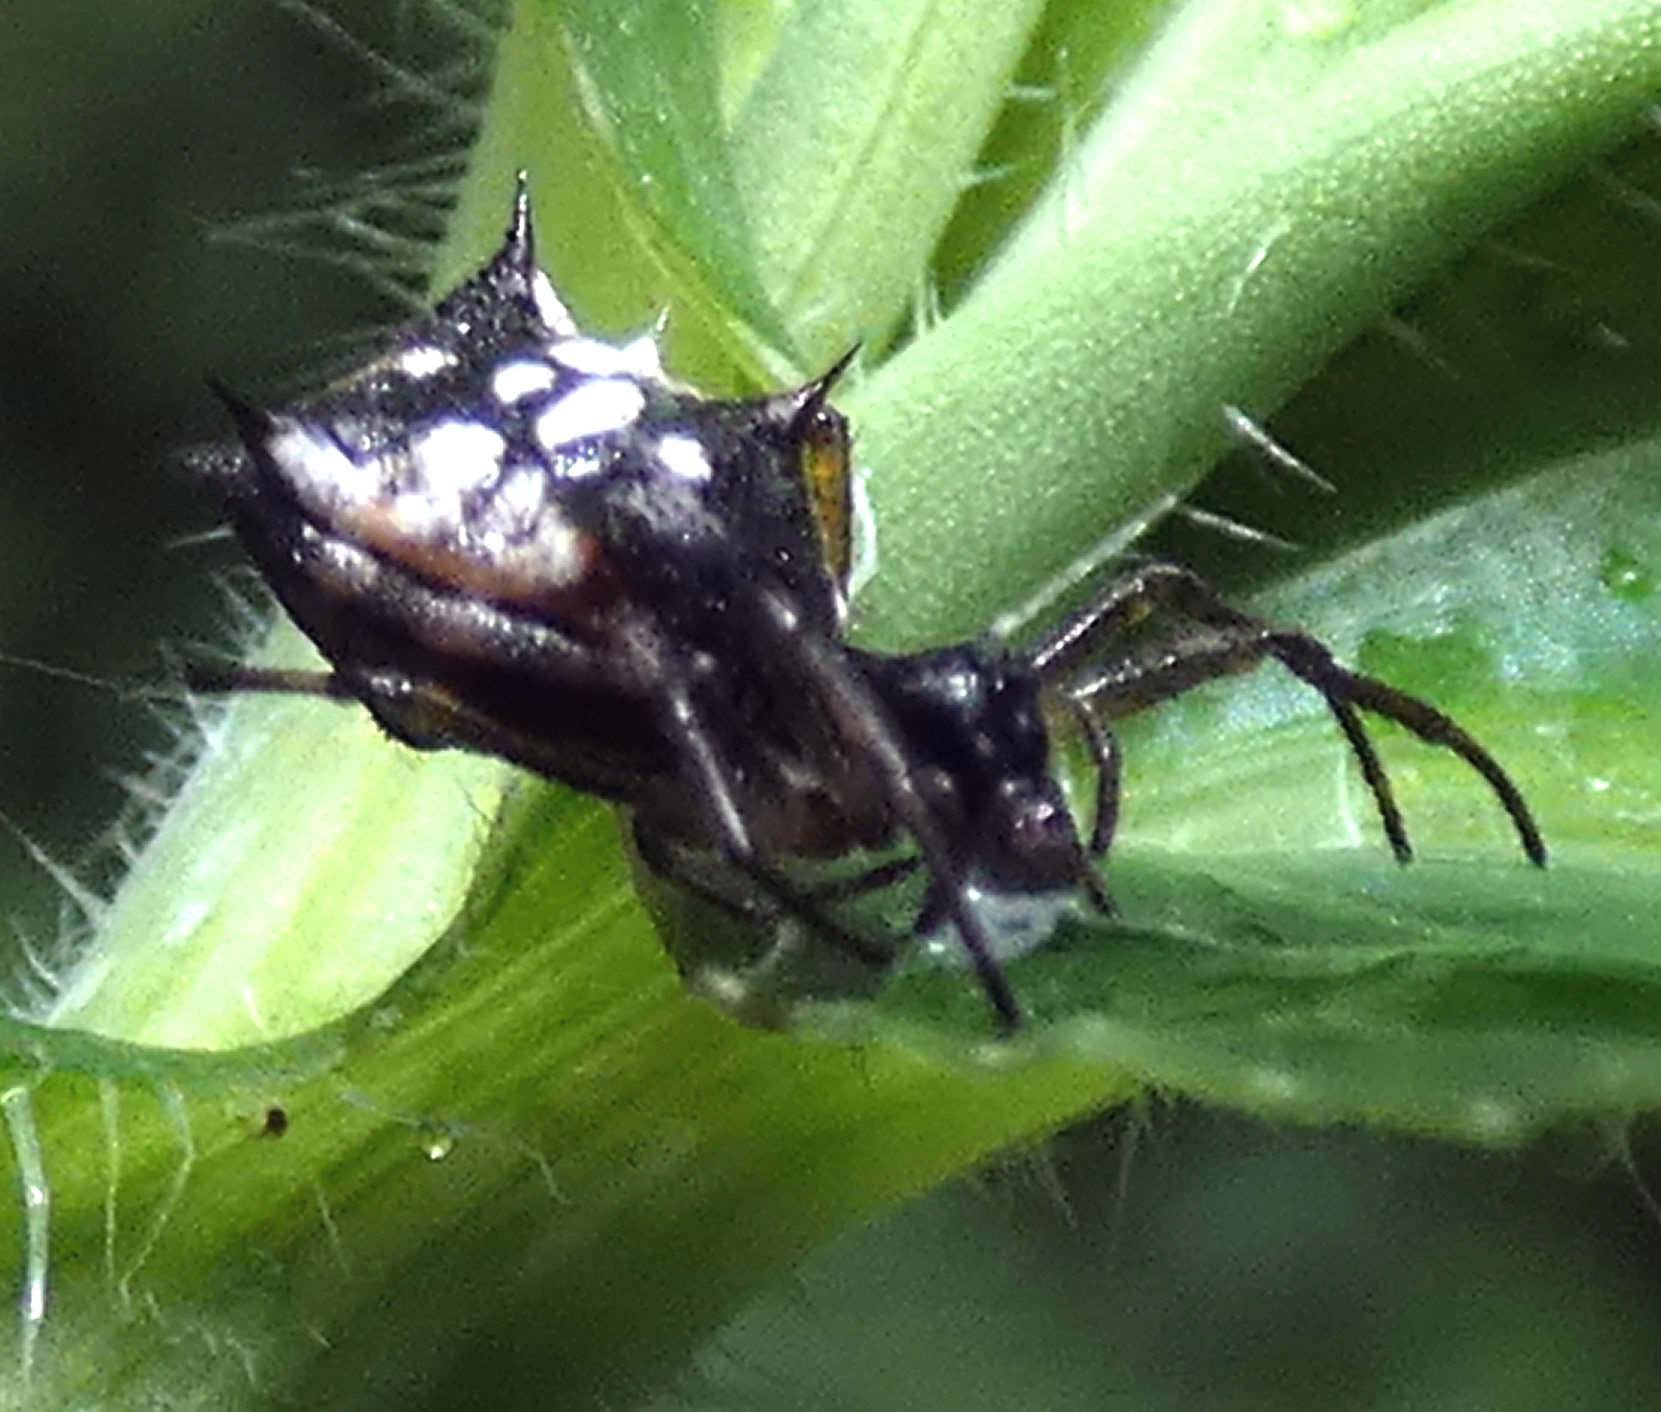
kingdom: Animalia
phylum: Arthropoda
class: Arachnida
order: Araneae
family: Araneidae
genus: Micrathena
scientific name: Micrathena picta
